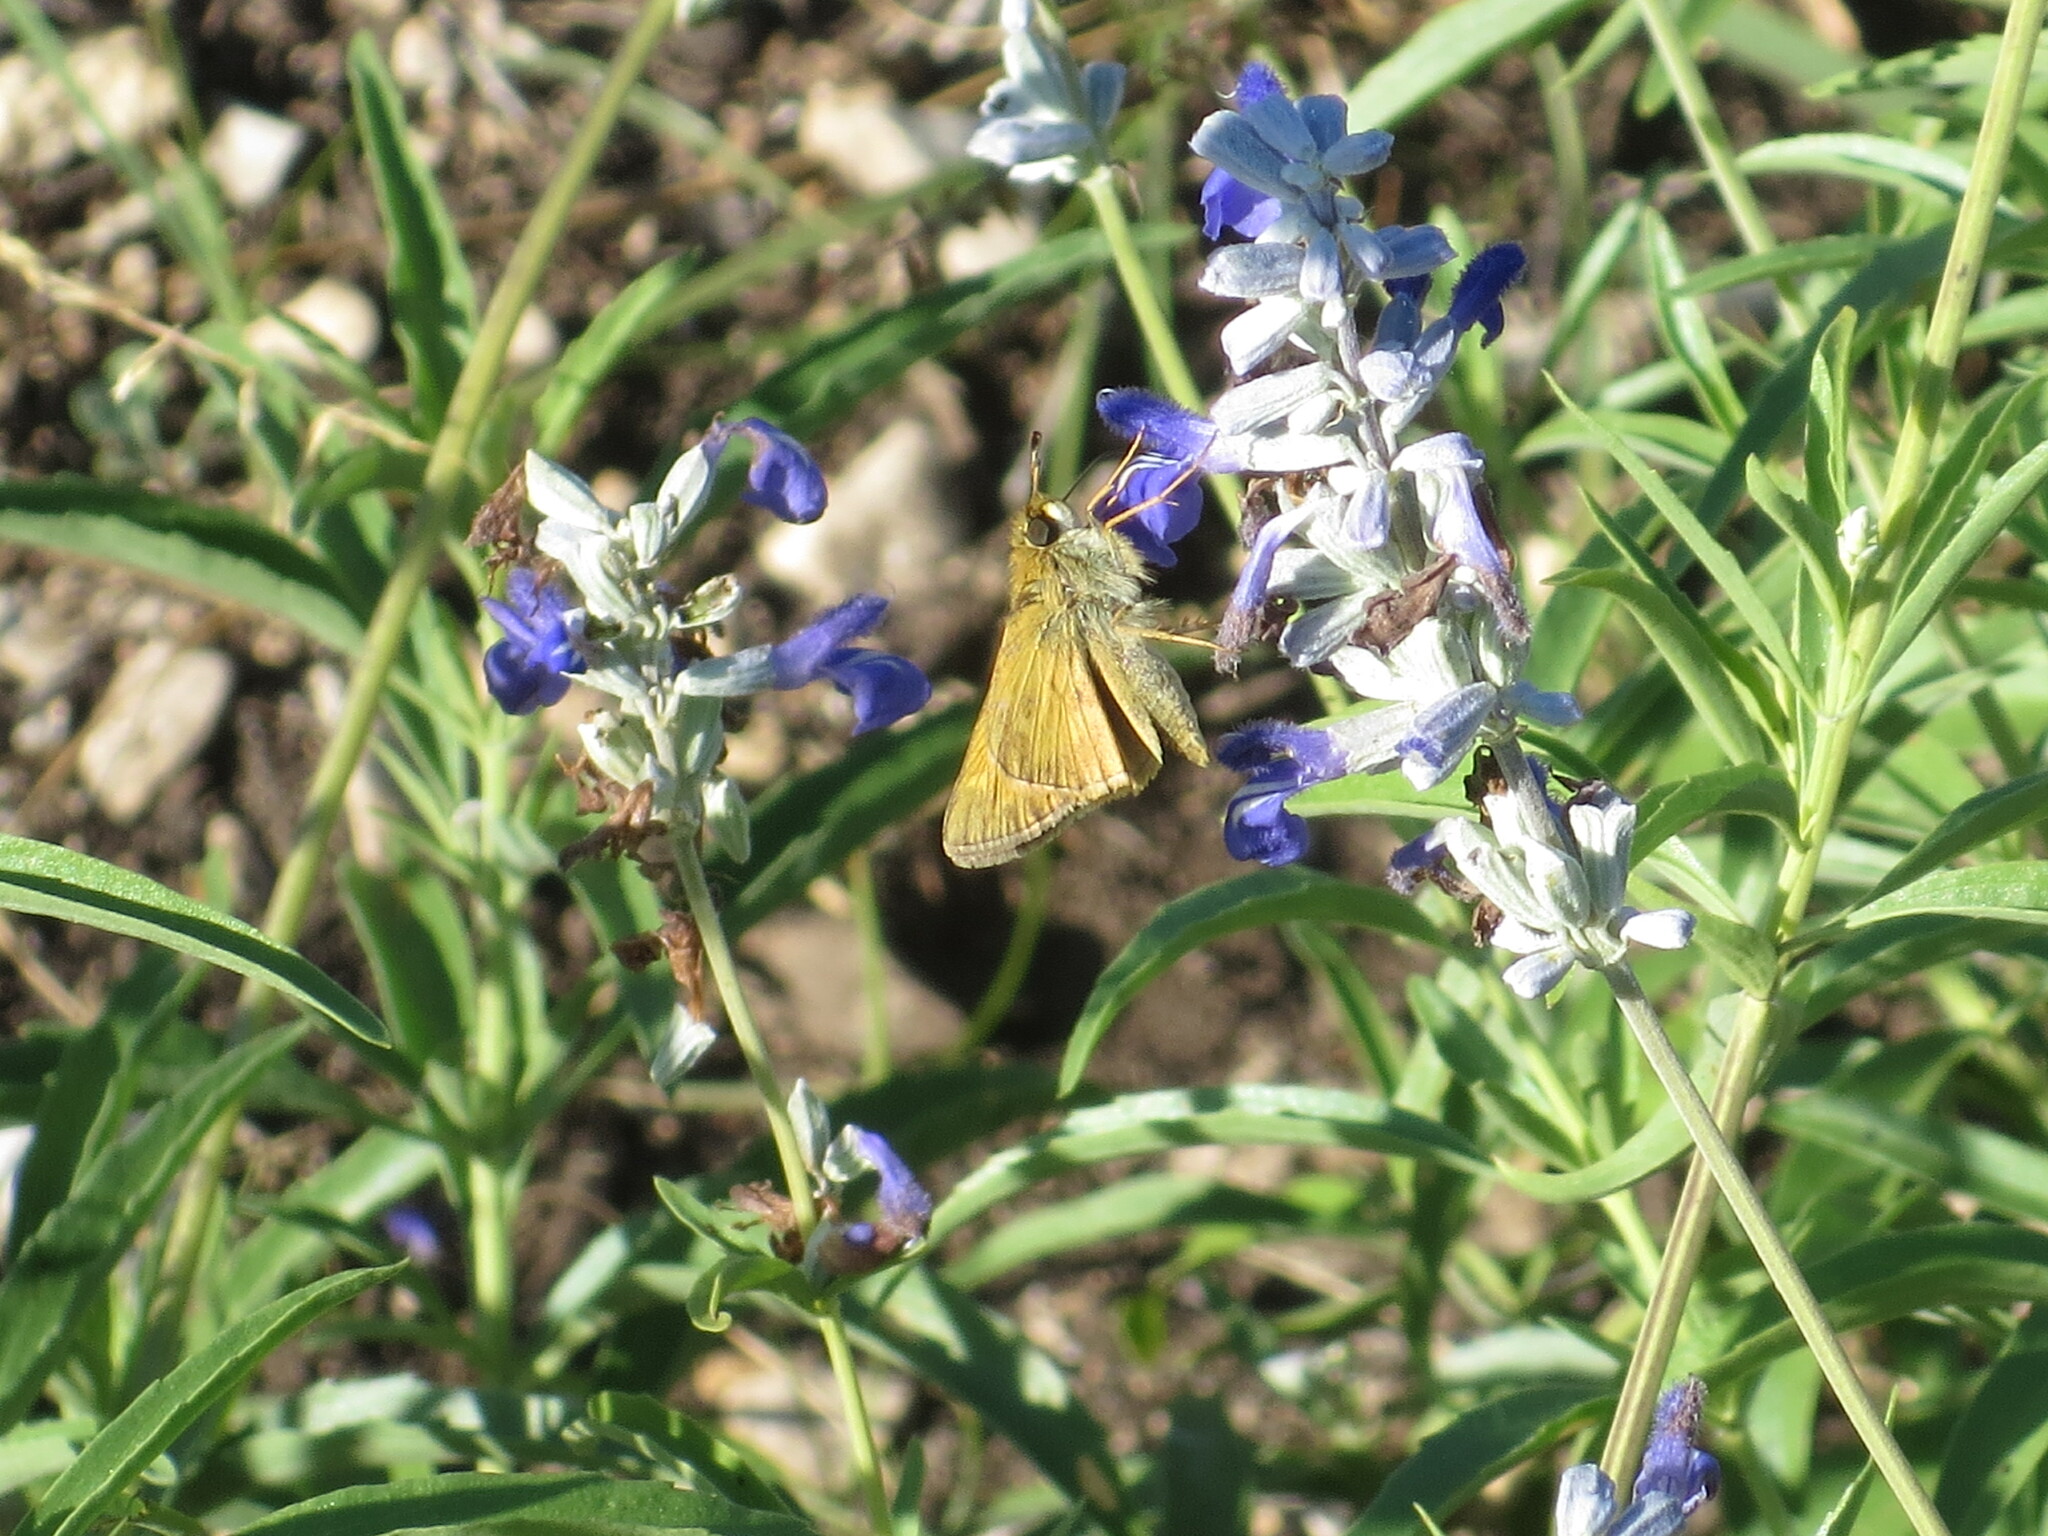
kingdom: Animalia
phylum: Arthropoda
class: Insecta
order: Lepidoptera
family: Hesperiidae
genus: Atalopedes
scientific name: Atalopedes
